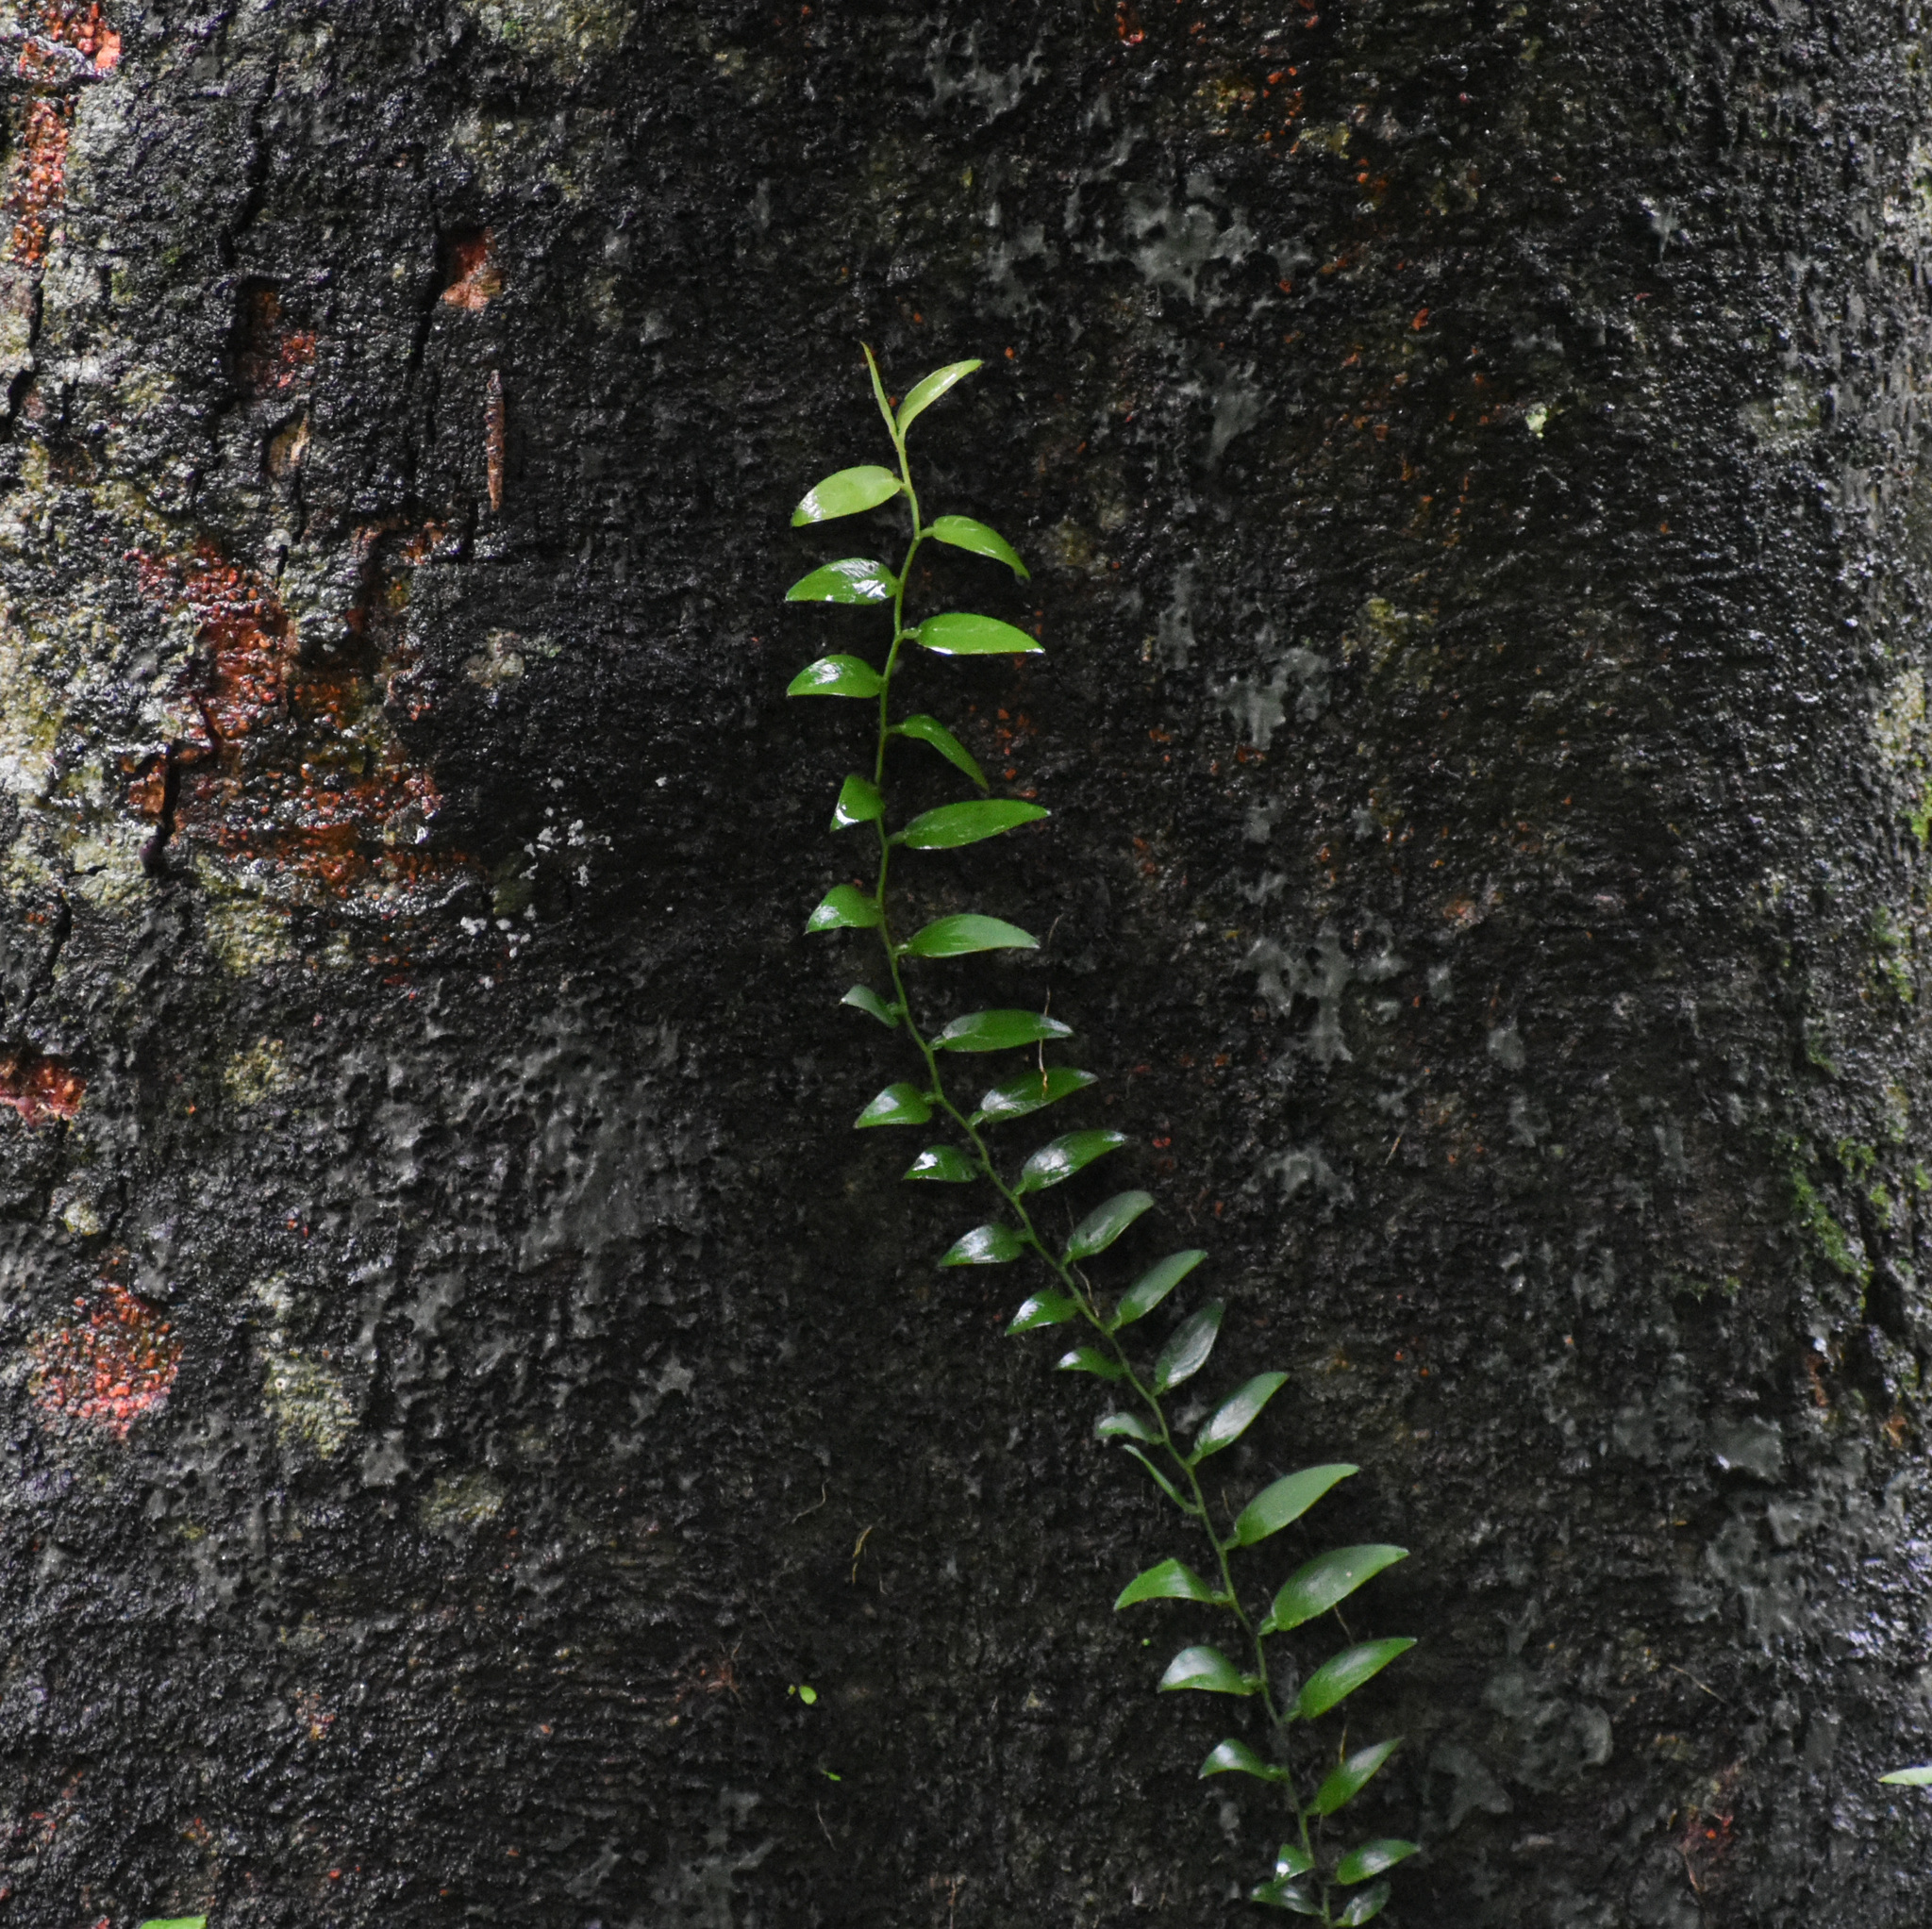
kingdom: Plantae
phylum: Tracheophyta
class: Liliopsida
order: Alismatales
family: Araceae
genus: Pothos
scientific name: Pothos scandens
